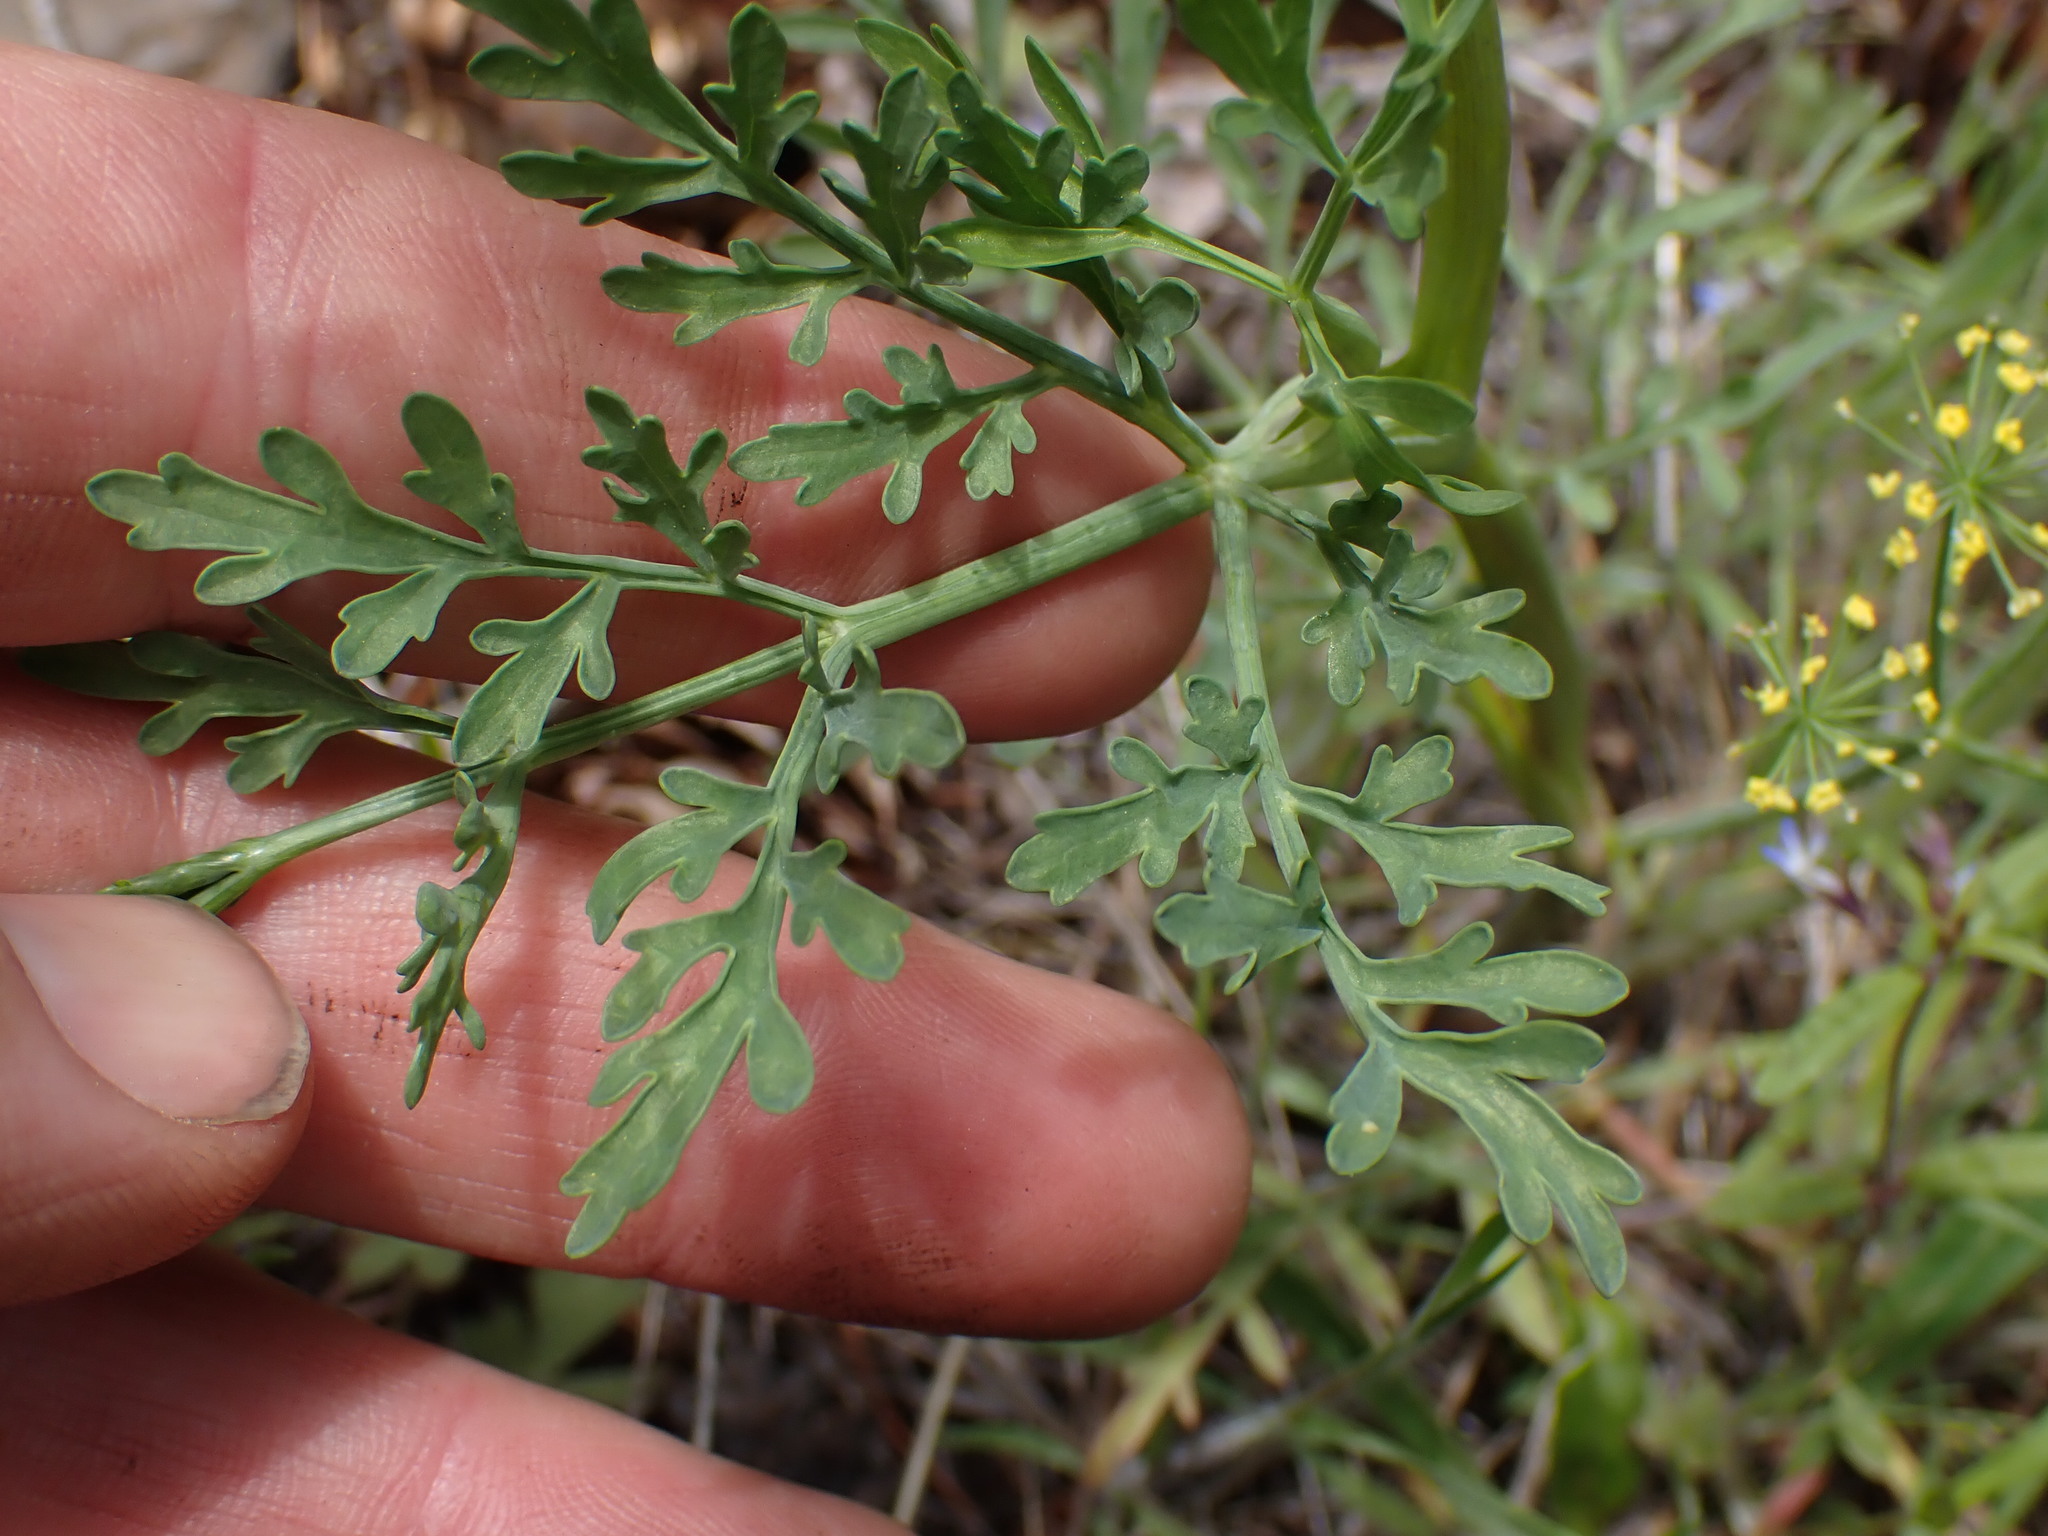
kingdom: Plantae
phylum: Tracheophyta
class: Magnoliopsida
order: Apiales
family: Apiaceae
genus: Lomatium
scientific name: Lomatium ambiguum
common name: Lacy lomatium
